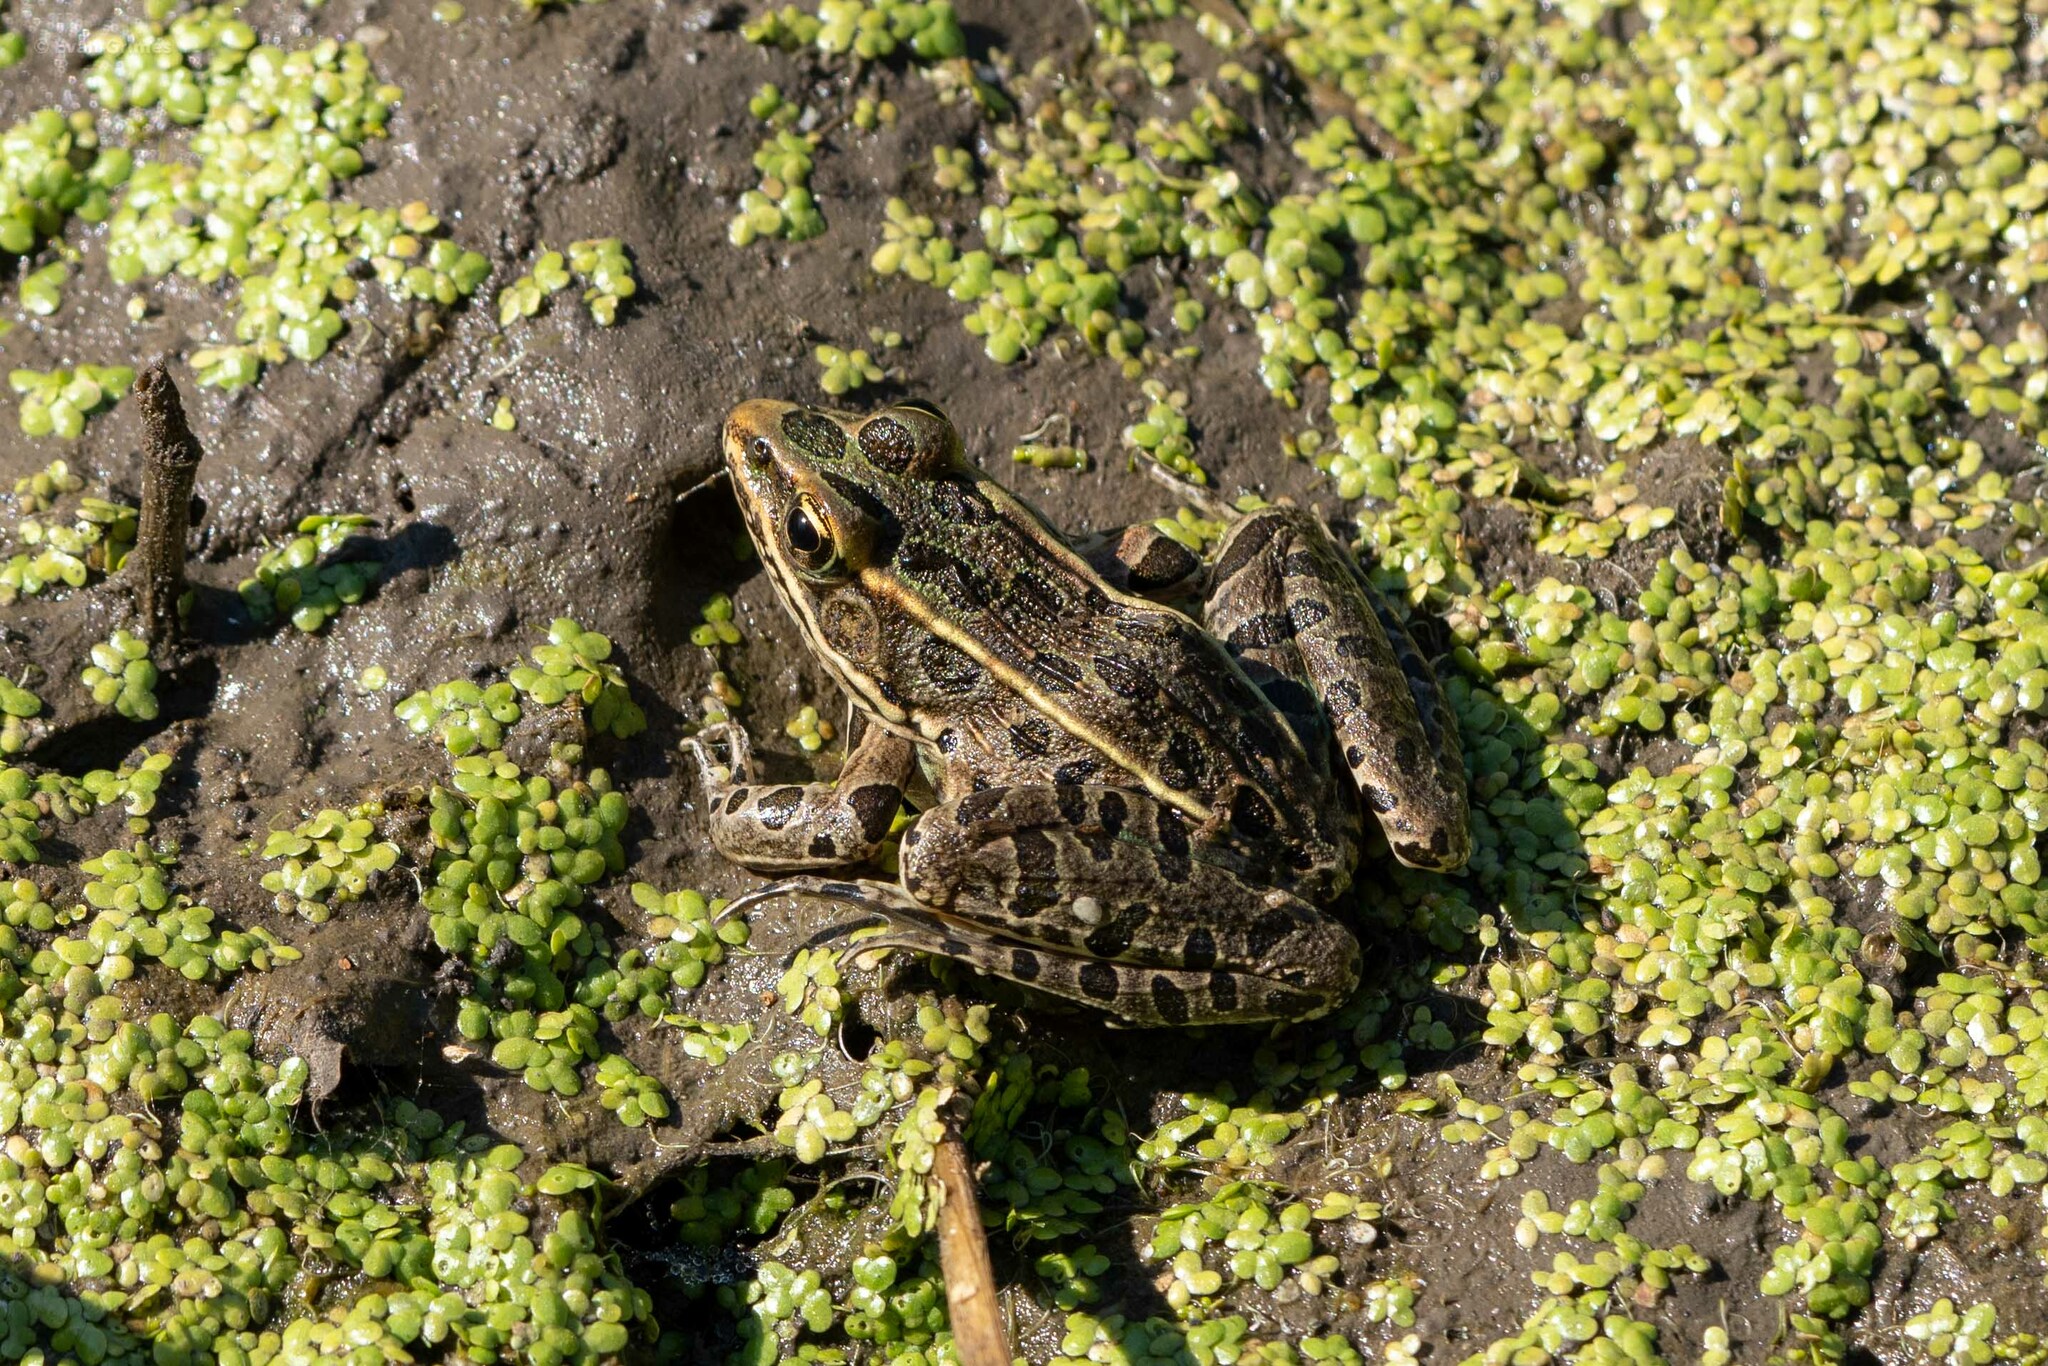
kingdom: Animalia
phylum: Chordata
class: Amphibia
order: Anura
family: Ranidae
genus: Lithobates
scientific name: Lithobates pipiens
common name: Northern leopard frog
